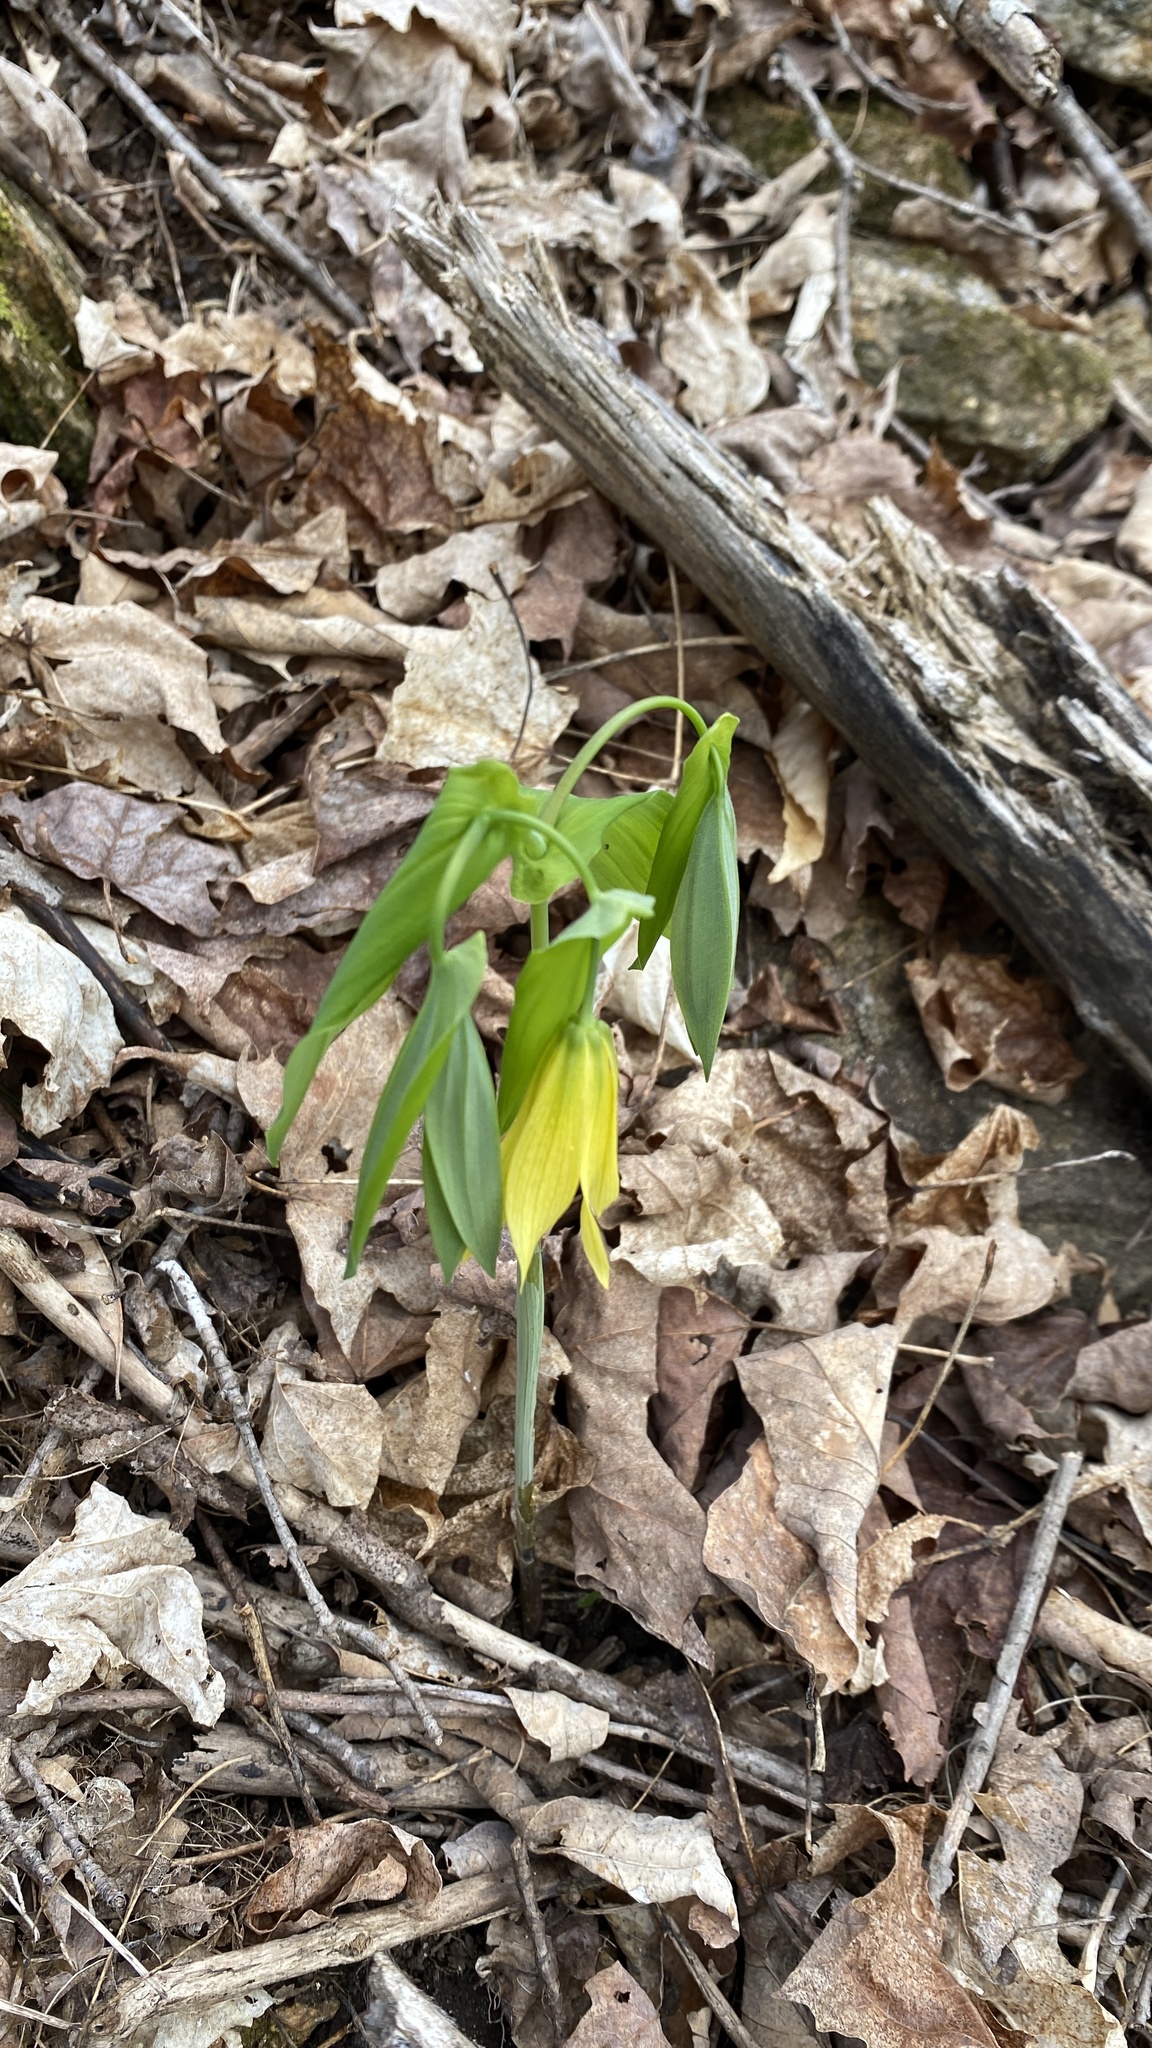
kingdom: Plantae
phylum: Tracheophyta
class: Liliopsida
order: Liliales
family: Colchicaceae
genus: Uvularia
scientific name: Uvularia grandiflora
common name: Bellwort
